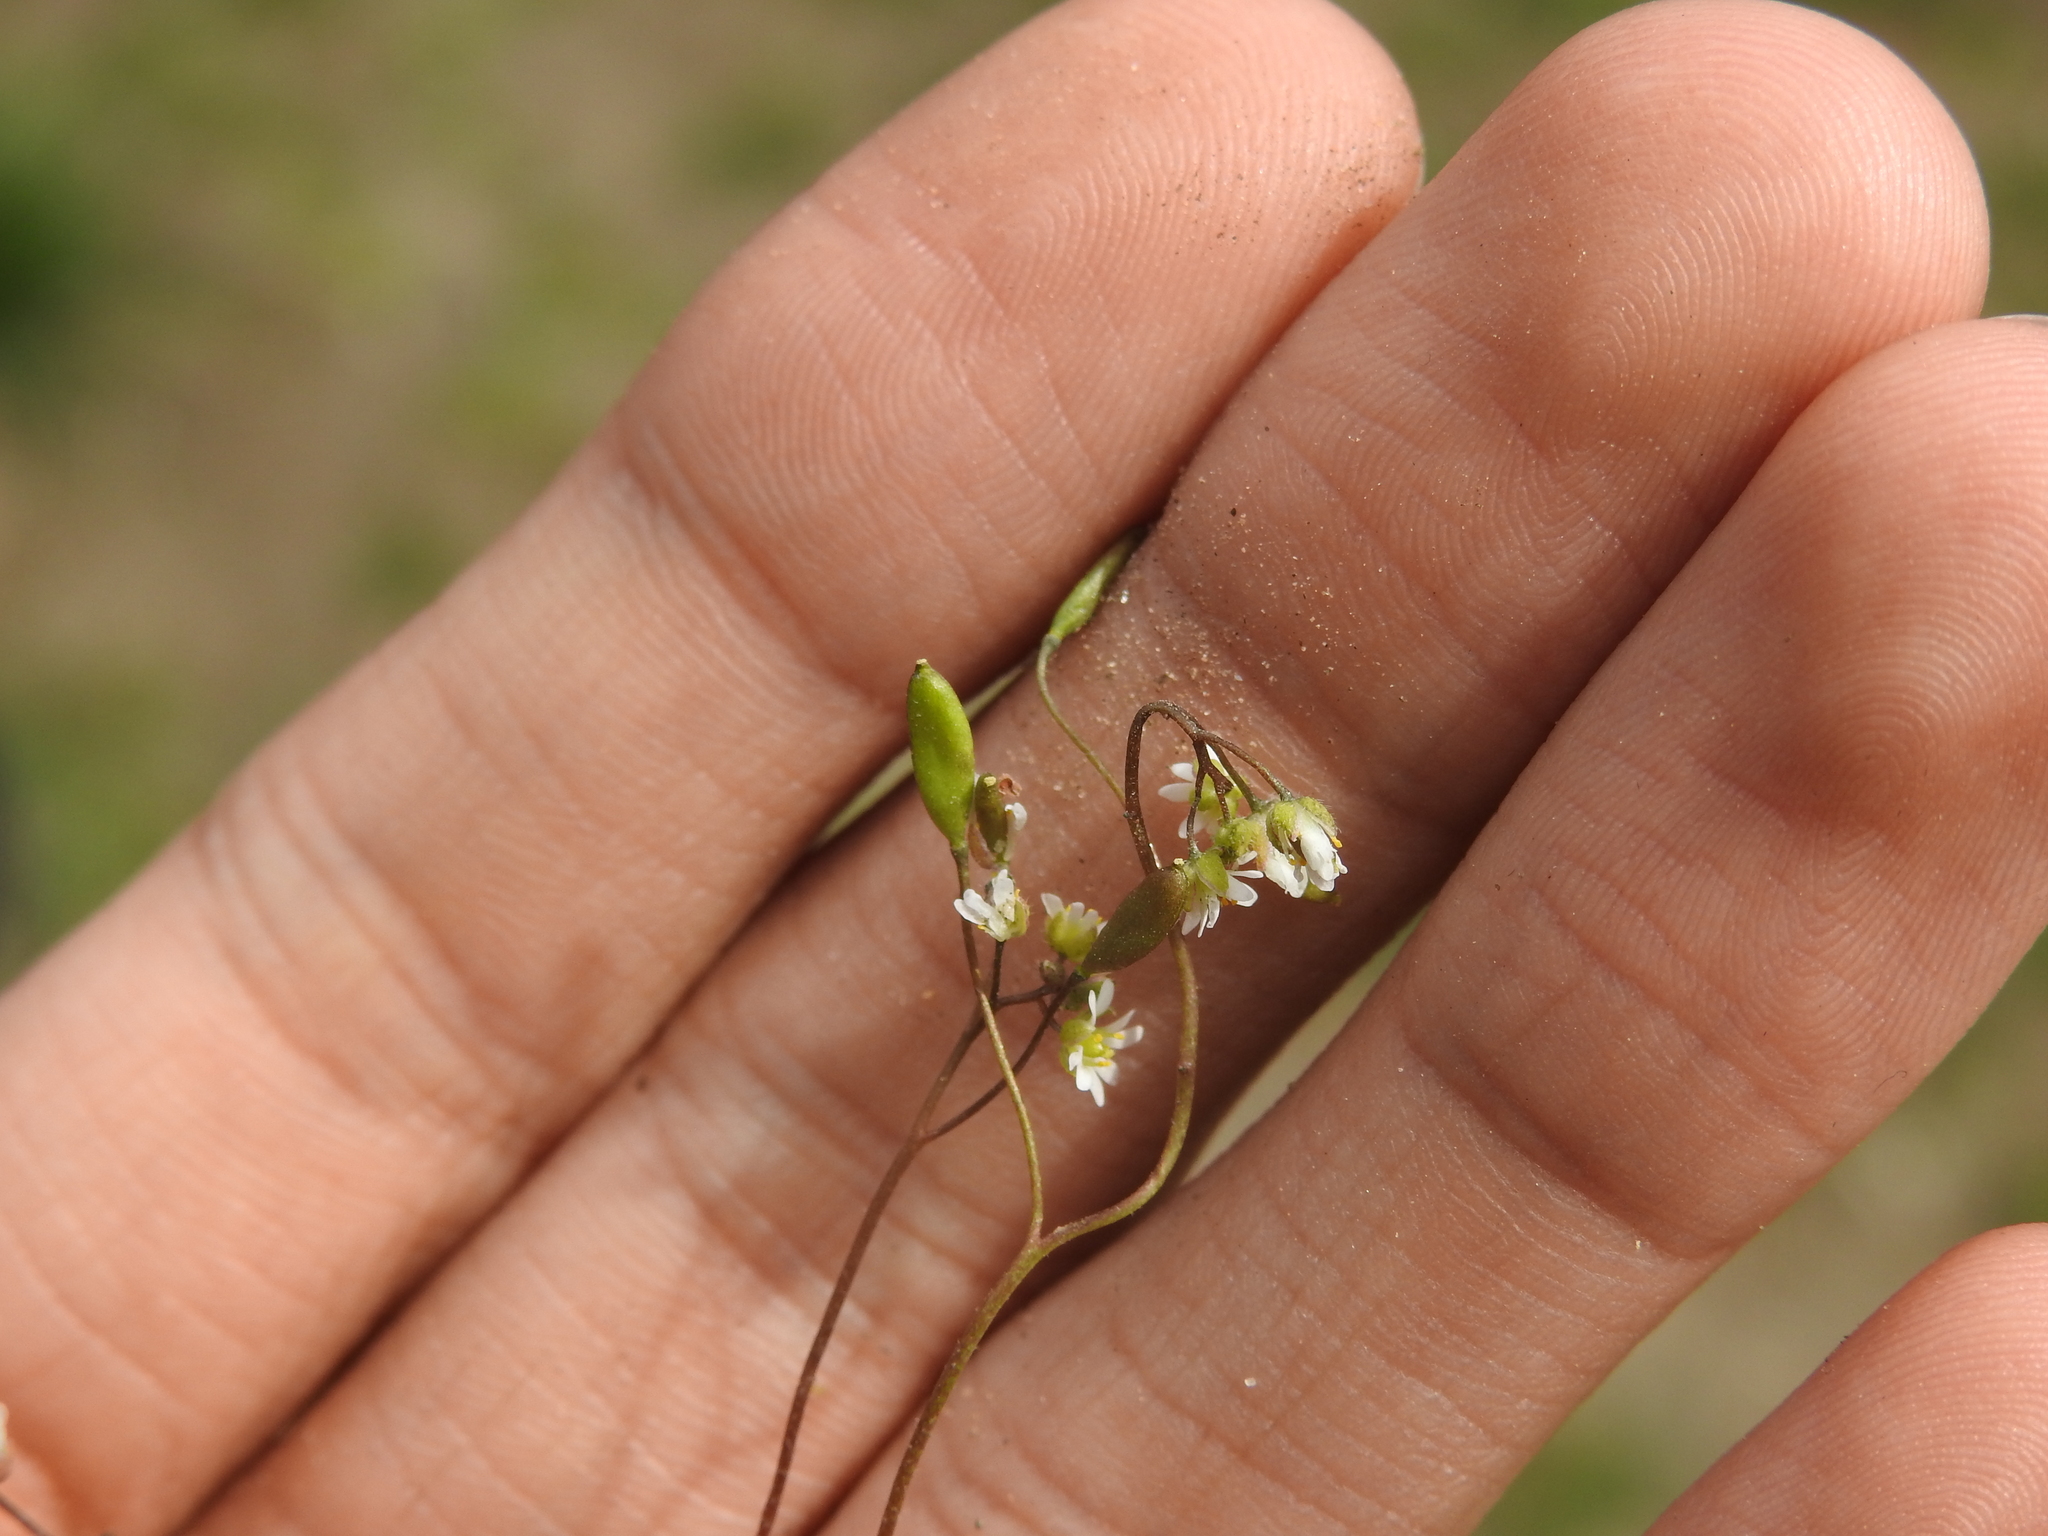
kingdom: Plantae
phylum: Tracheophyta
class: Magnoliopsida
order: Brassicales
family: Brassicaceae
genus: Draba
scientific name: Draba verna
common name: Spring draba
